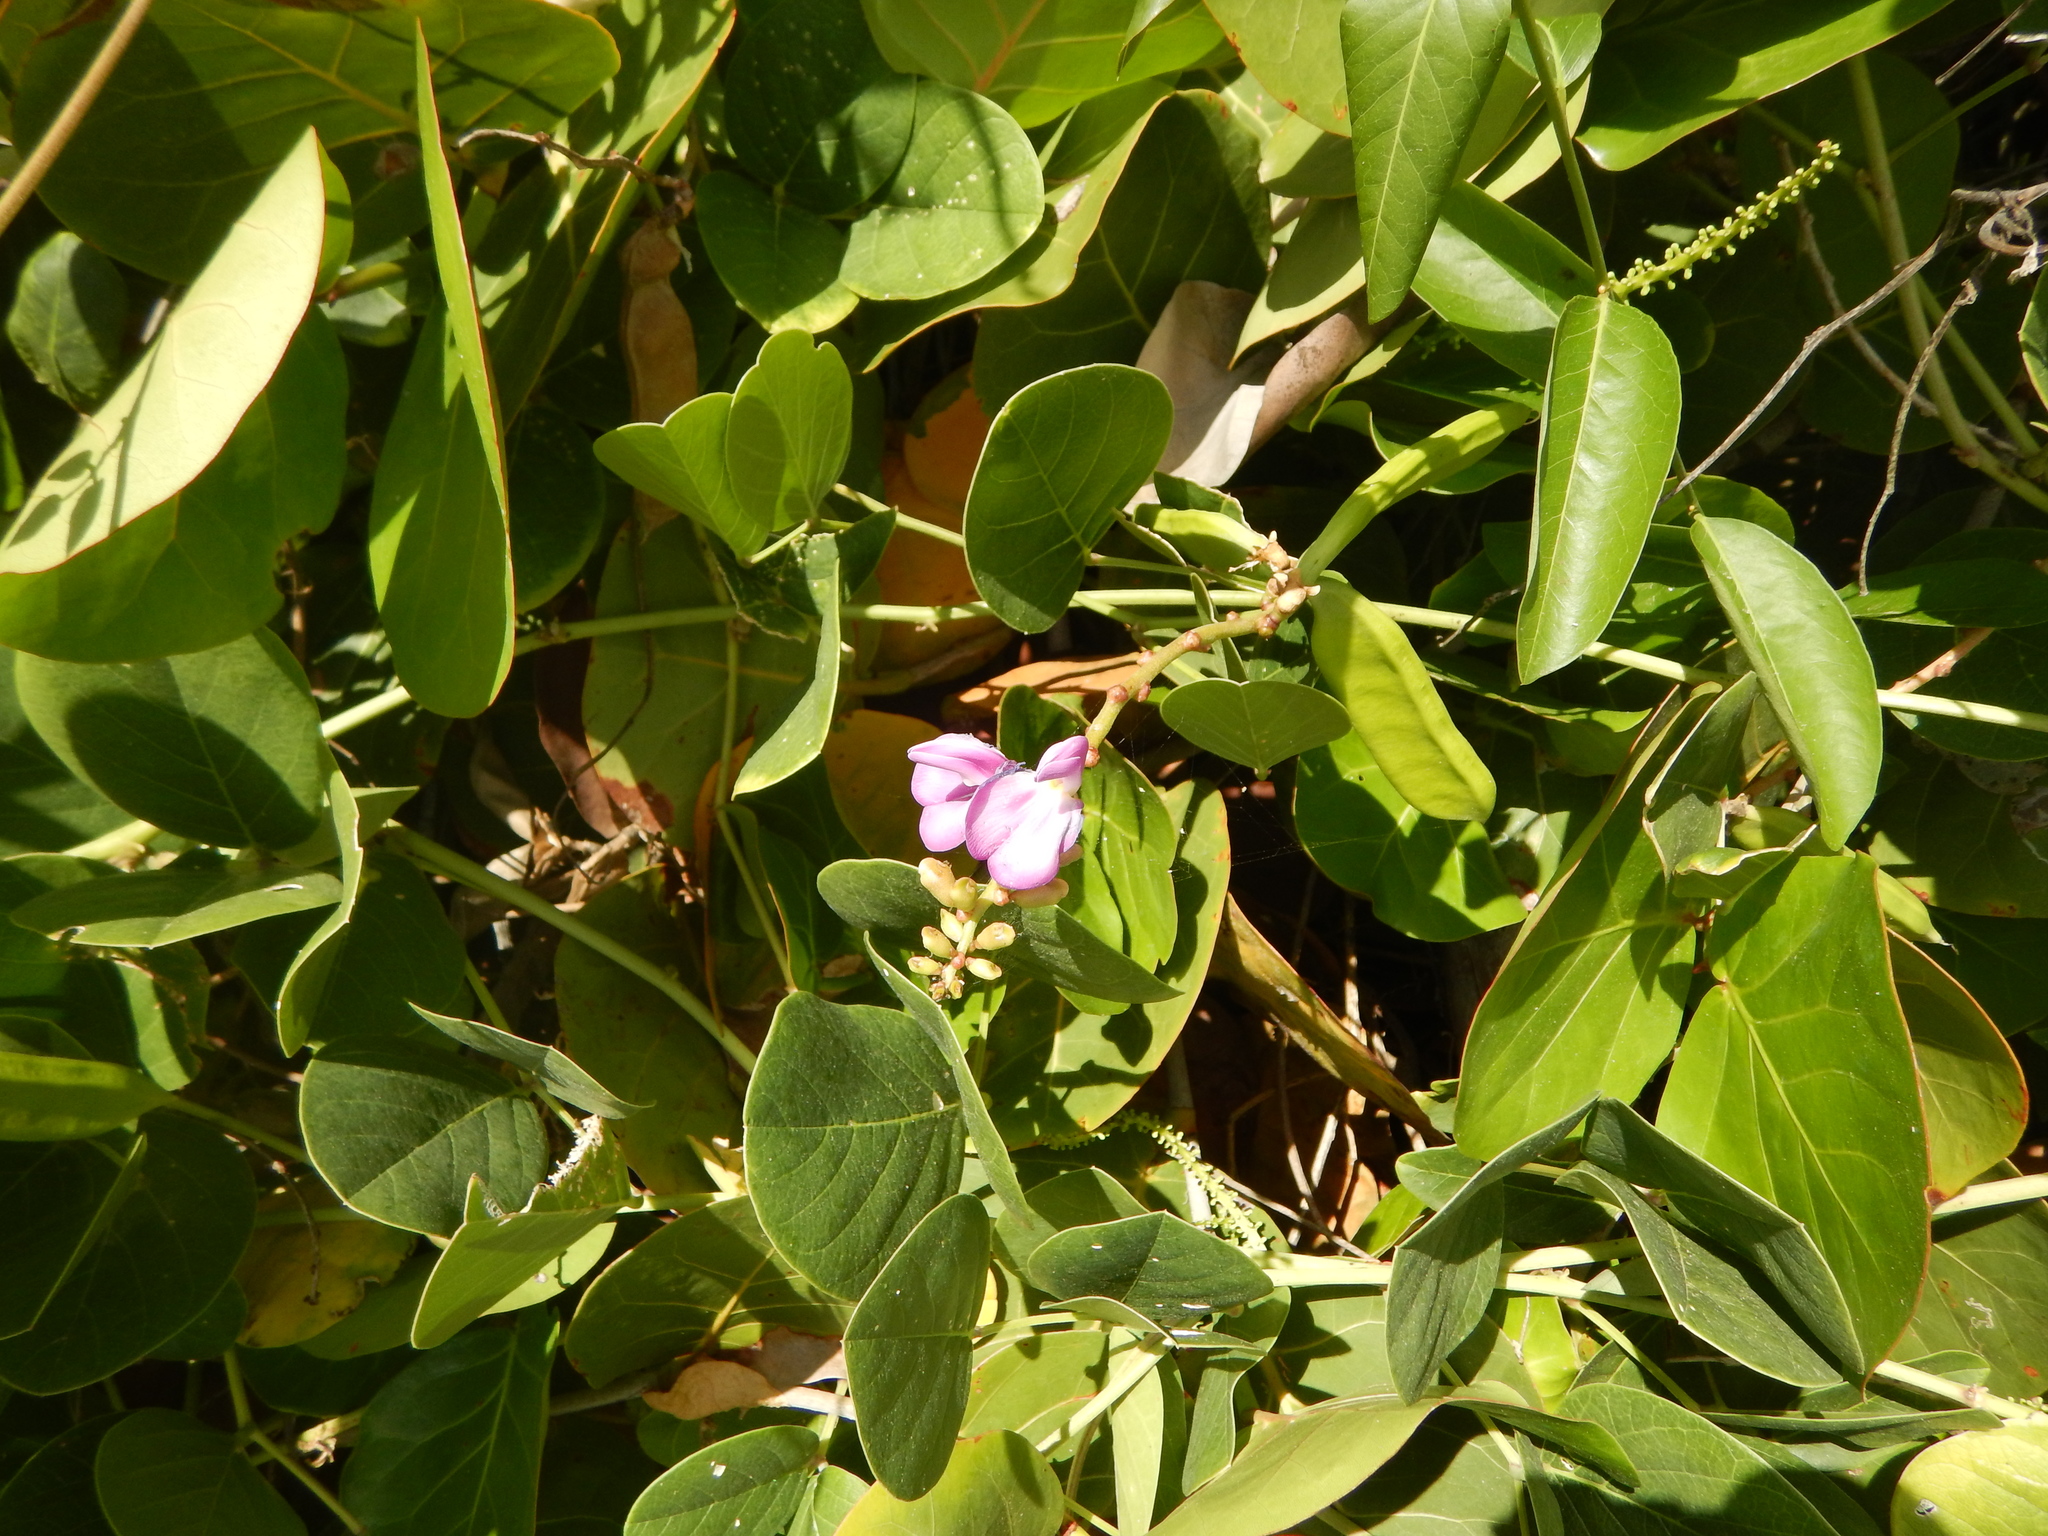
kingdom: Plantae
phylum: Tracheophyta
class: Magnoliopsida
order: Fabales
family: Fabaceae
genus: Canavalia
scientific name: Canavalia rosea
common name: Beach-bean
